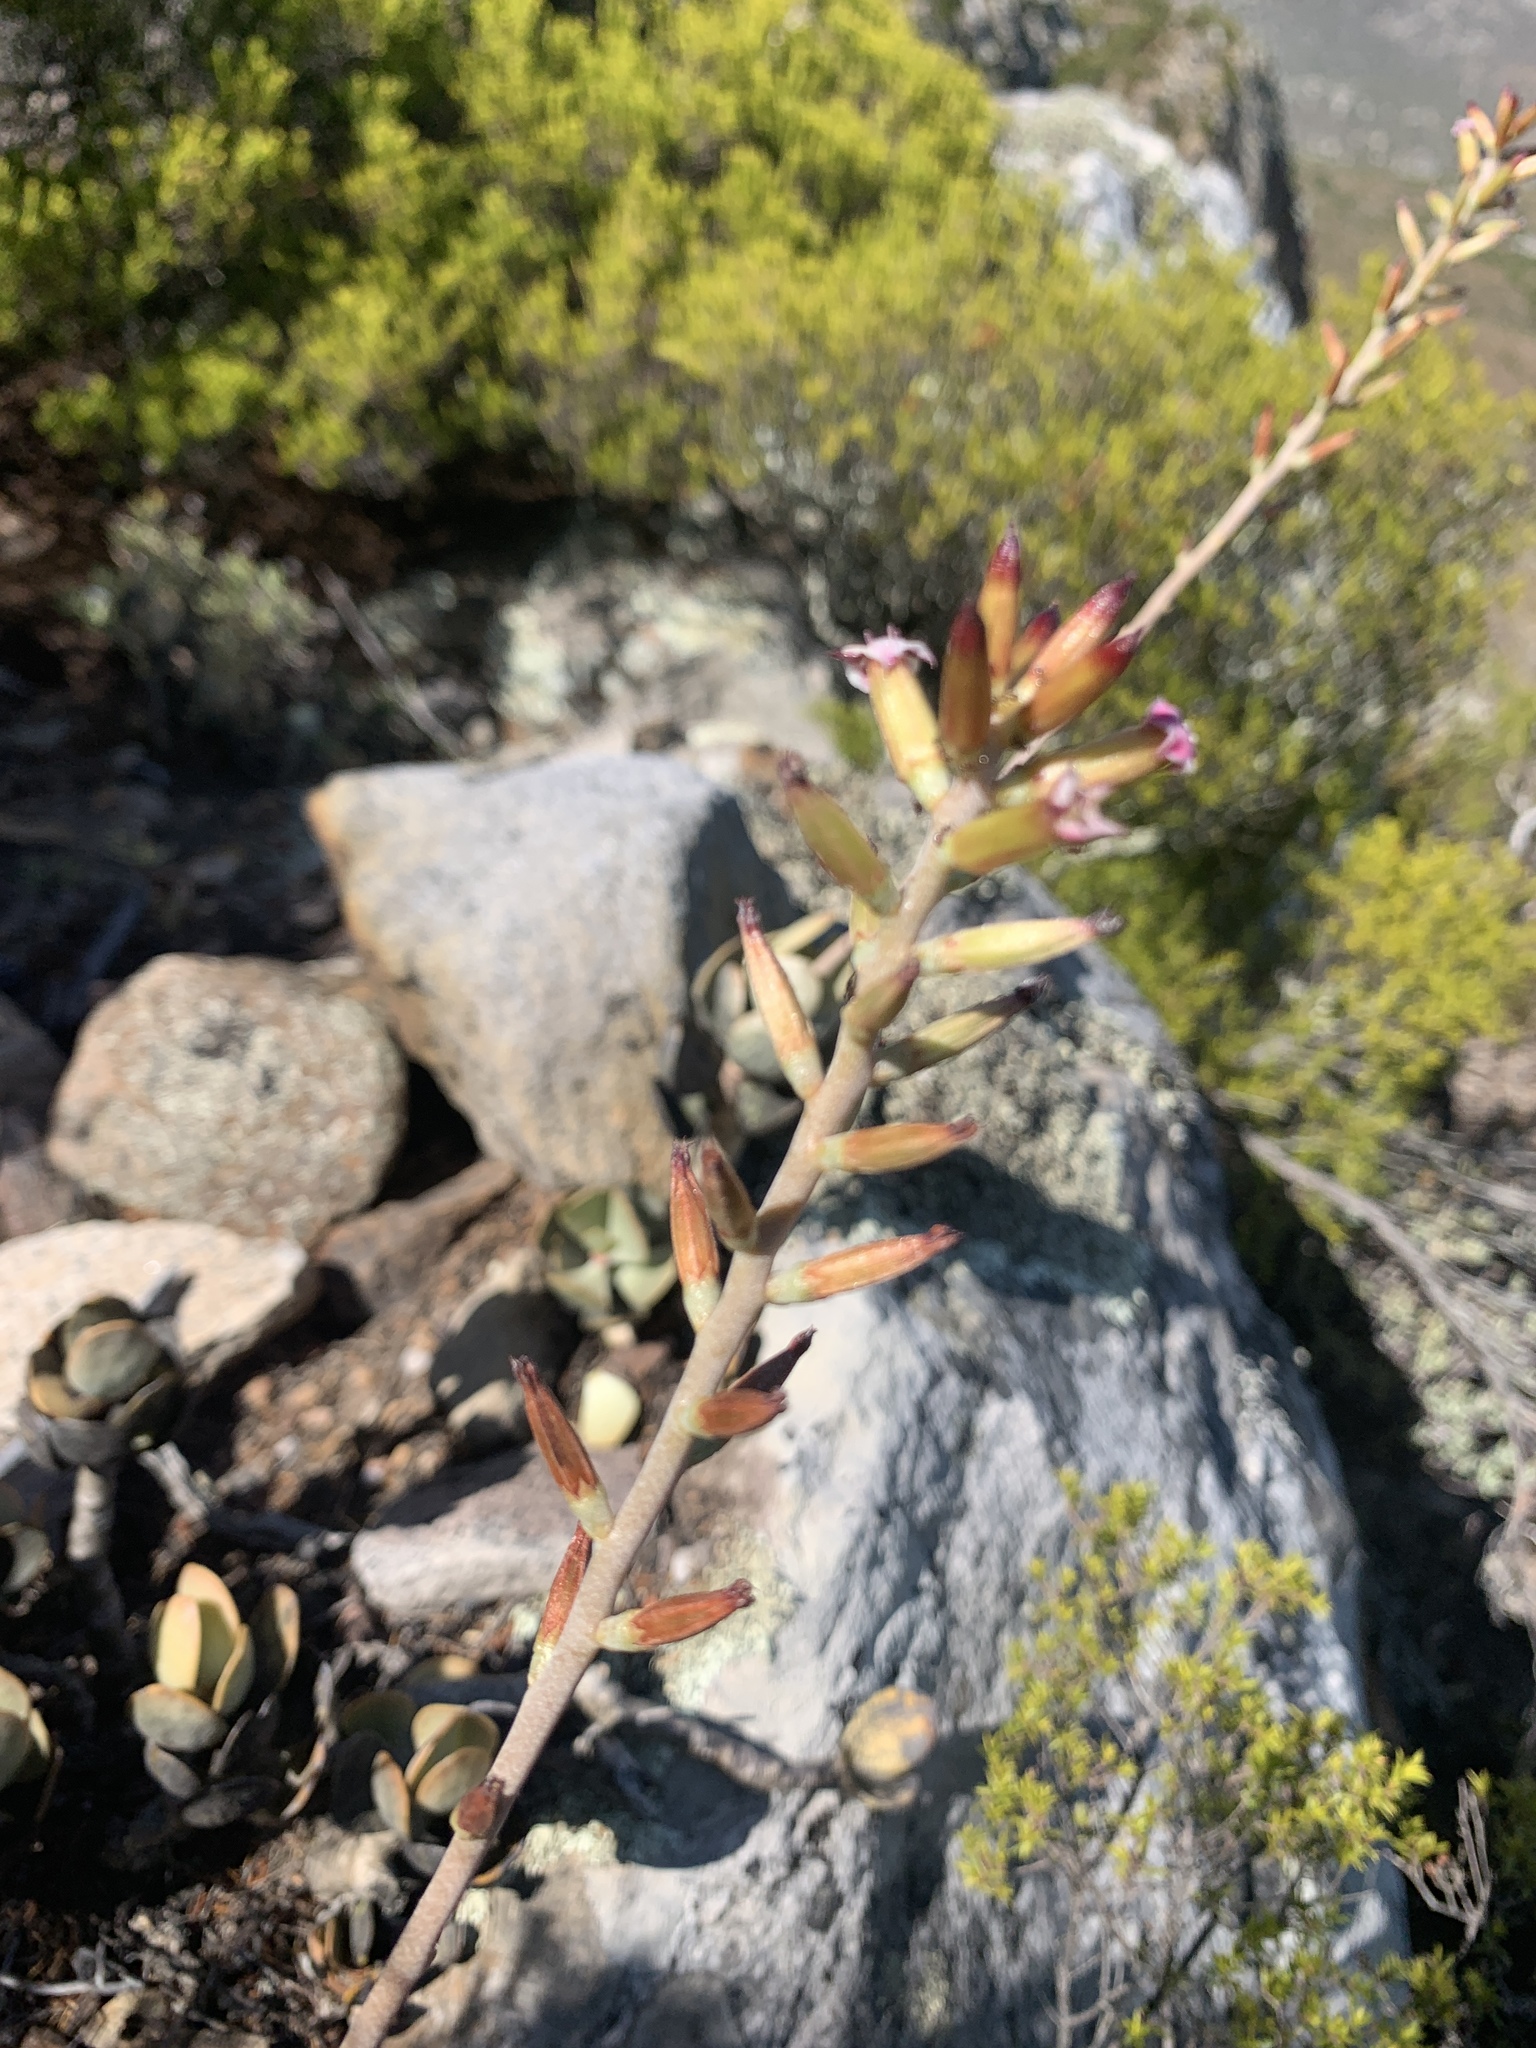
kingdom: Plantae
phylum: Tracheophyta
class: Magnoliopsida
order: Saxifragales
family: Crassulaceae
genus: Adromischus
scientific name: Adromischus hemisphaericus
